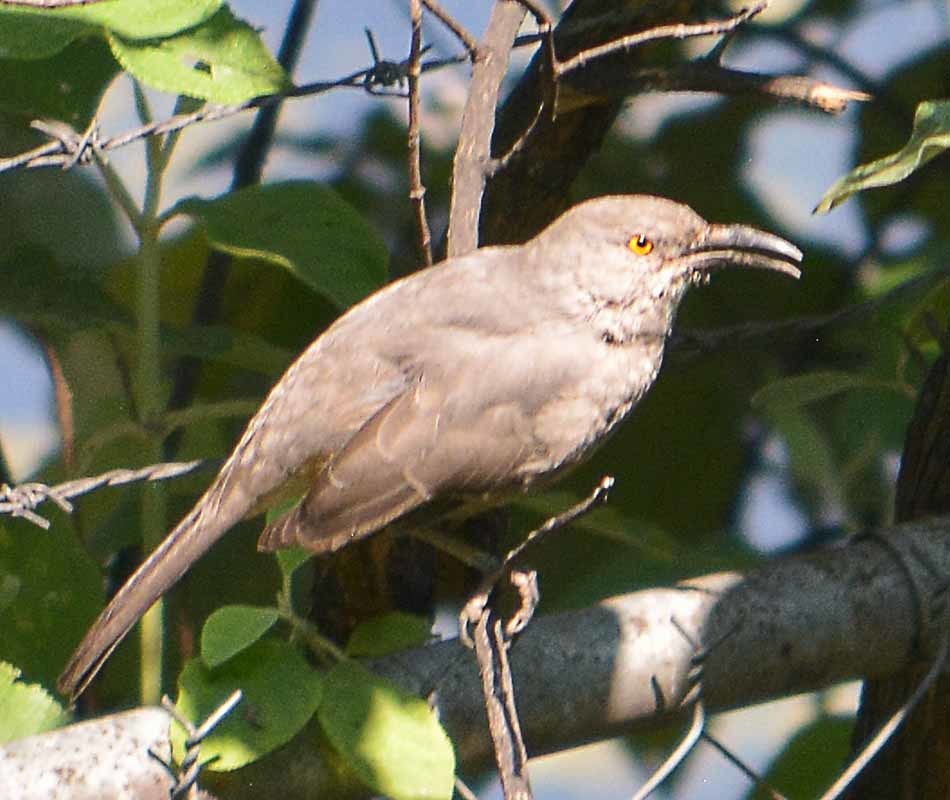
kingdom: Animalia
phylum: Chordata
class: Aves
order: Passeriformes
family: Mimidae
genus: Toxostoma
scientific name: Toxostoma curvirostre
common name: Curve-billed thrasher
